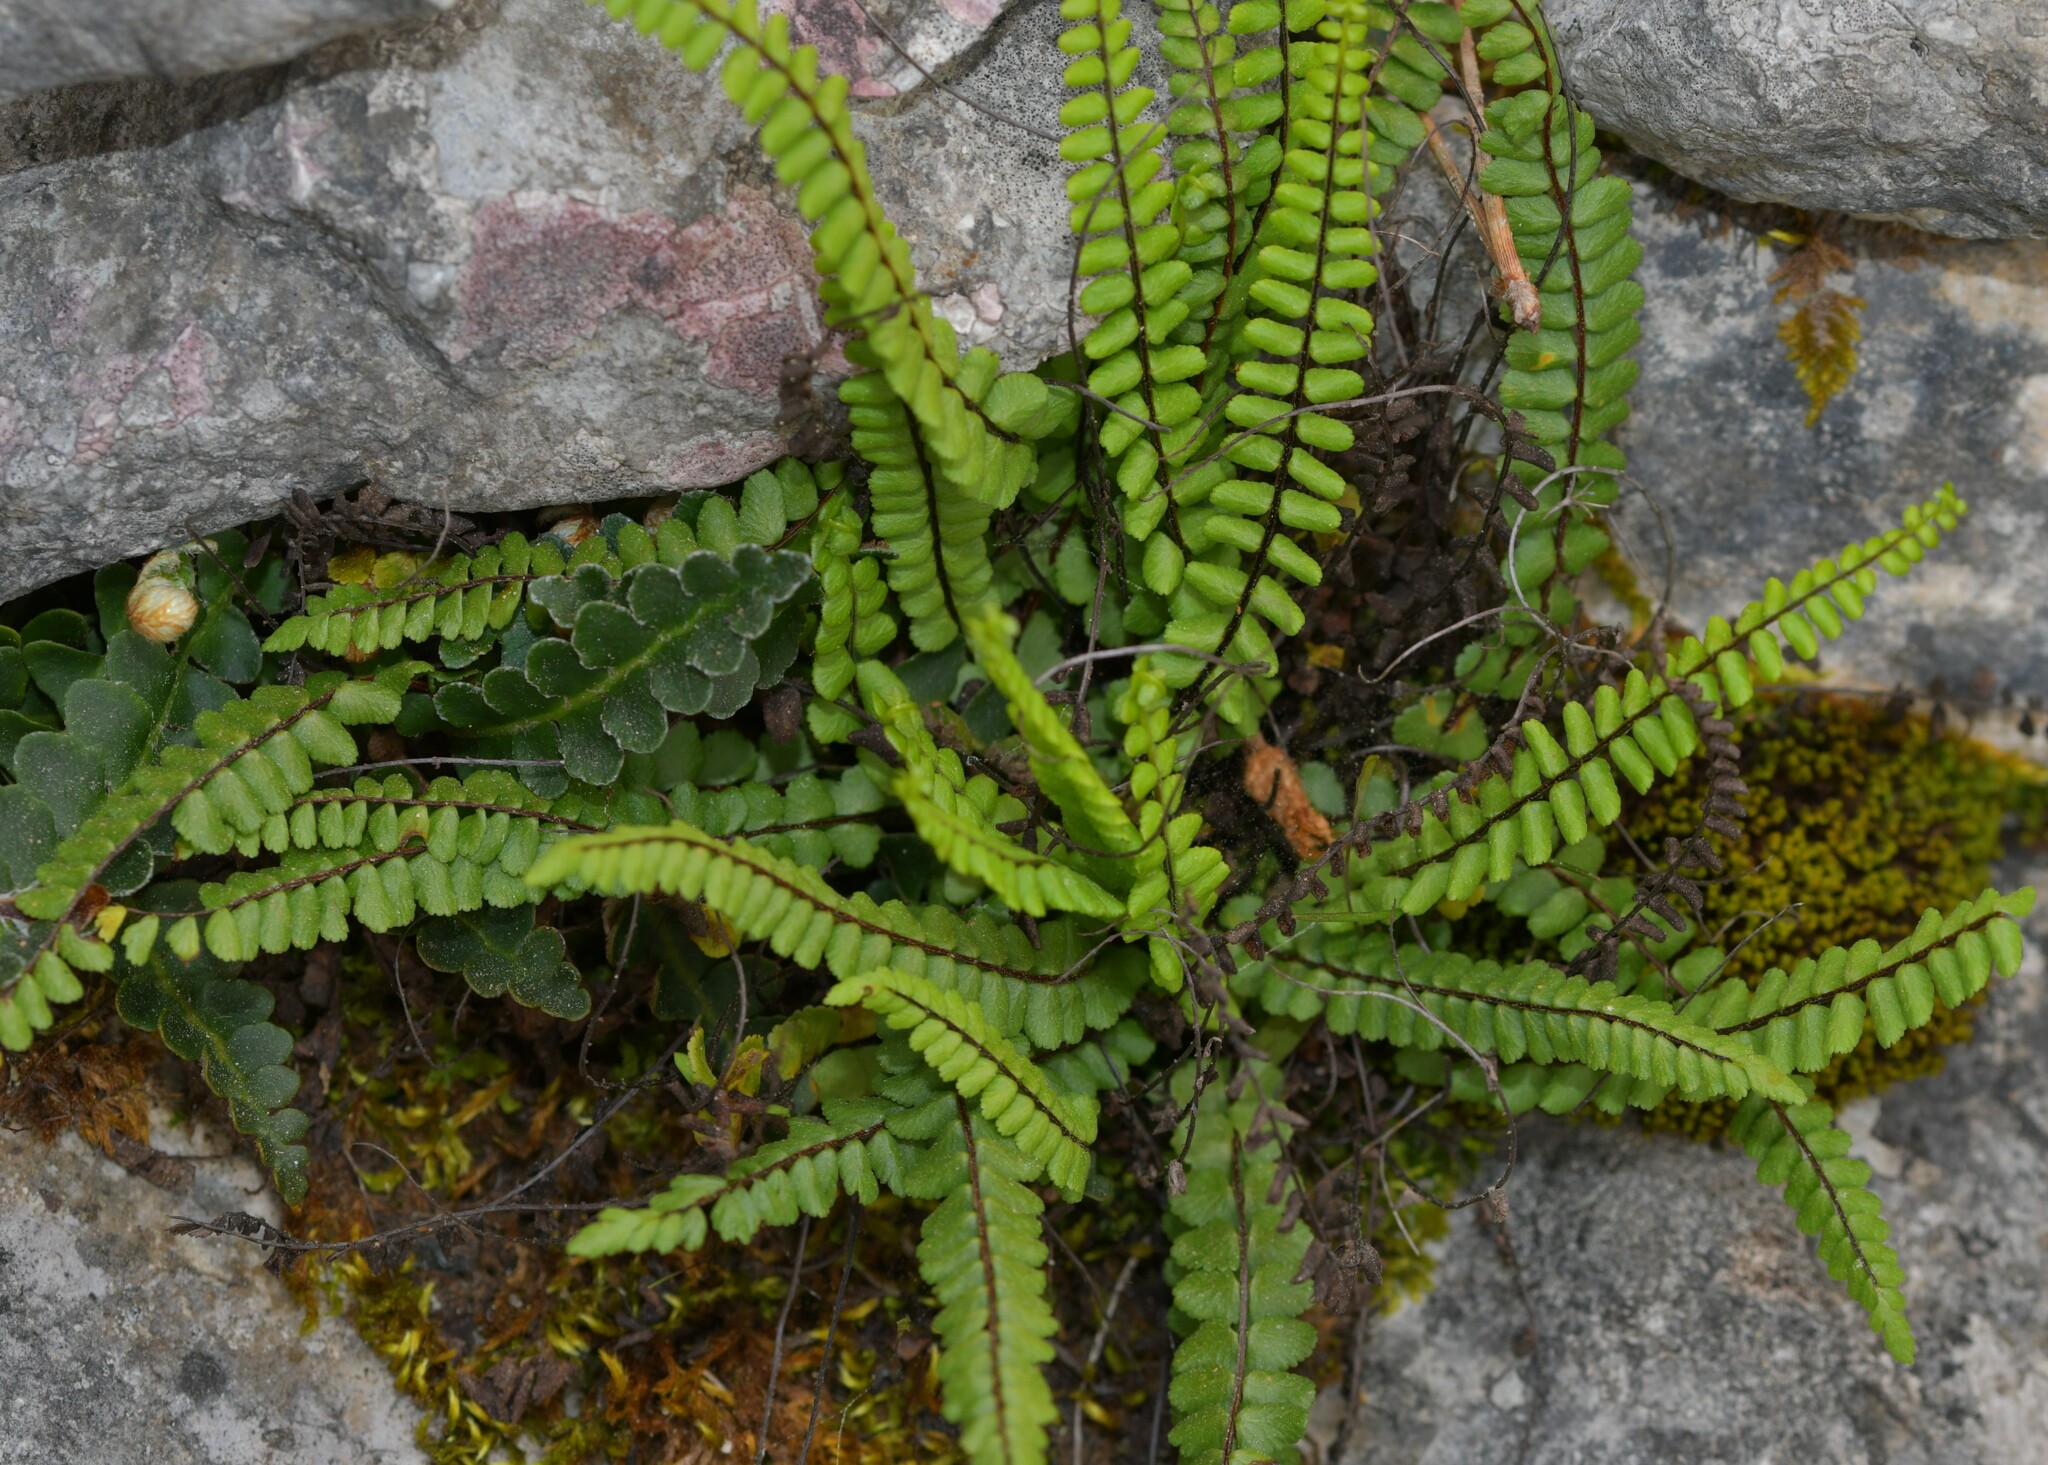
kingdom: Plantae
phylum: Tracheophyta
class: Polypodiopsida
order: Polypodiales
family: Aspleniaceae
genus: Asplenium
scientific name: Asplenium trichomanes
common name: Maidenhair spleenwort
